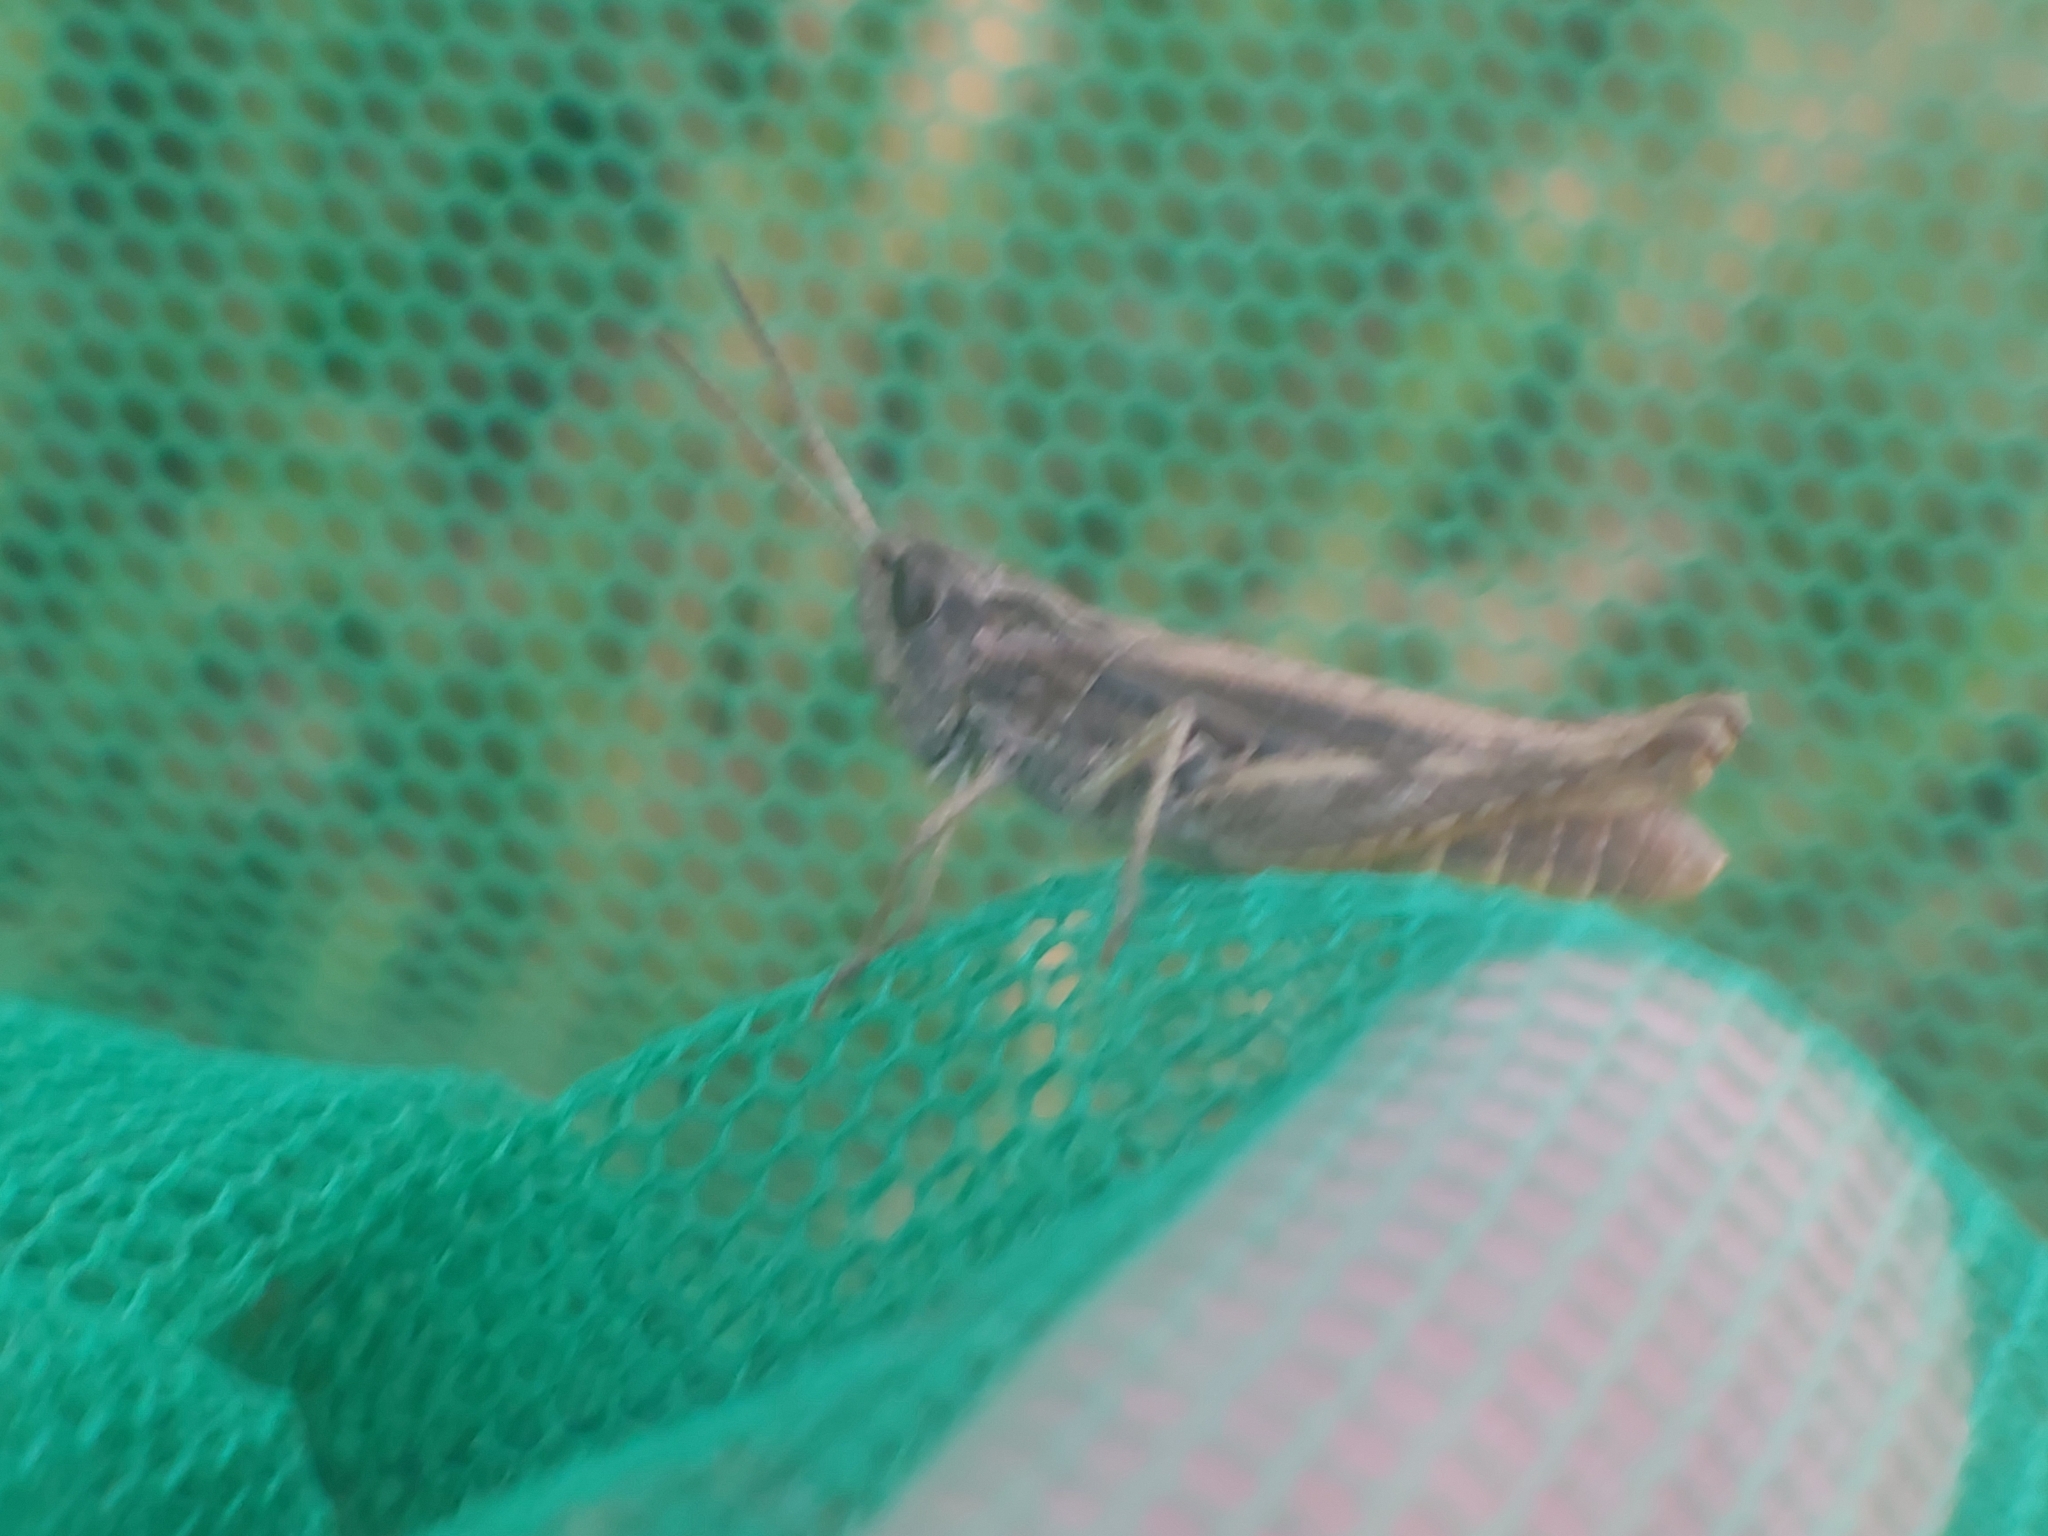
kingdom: Animalia
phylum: Arthropoda
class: Insecta
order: Orthoptera
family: Acrididae
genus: Chorthippus
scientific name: Chorthippus apricarius
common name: Upland field grasshopper
